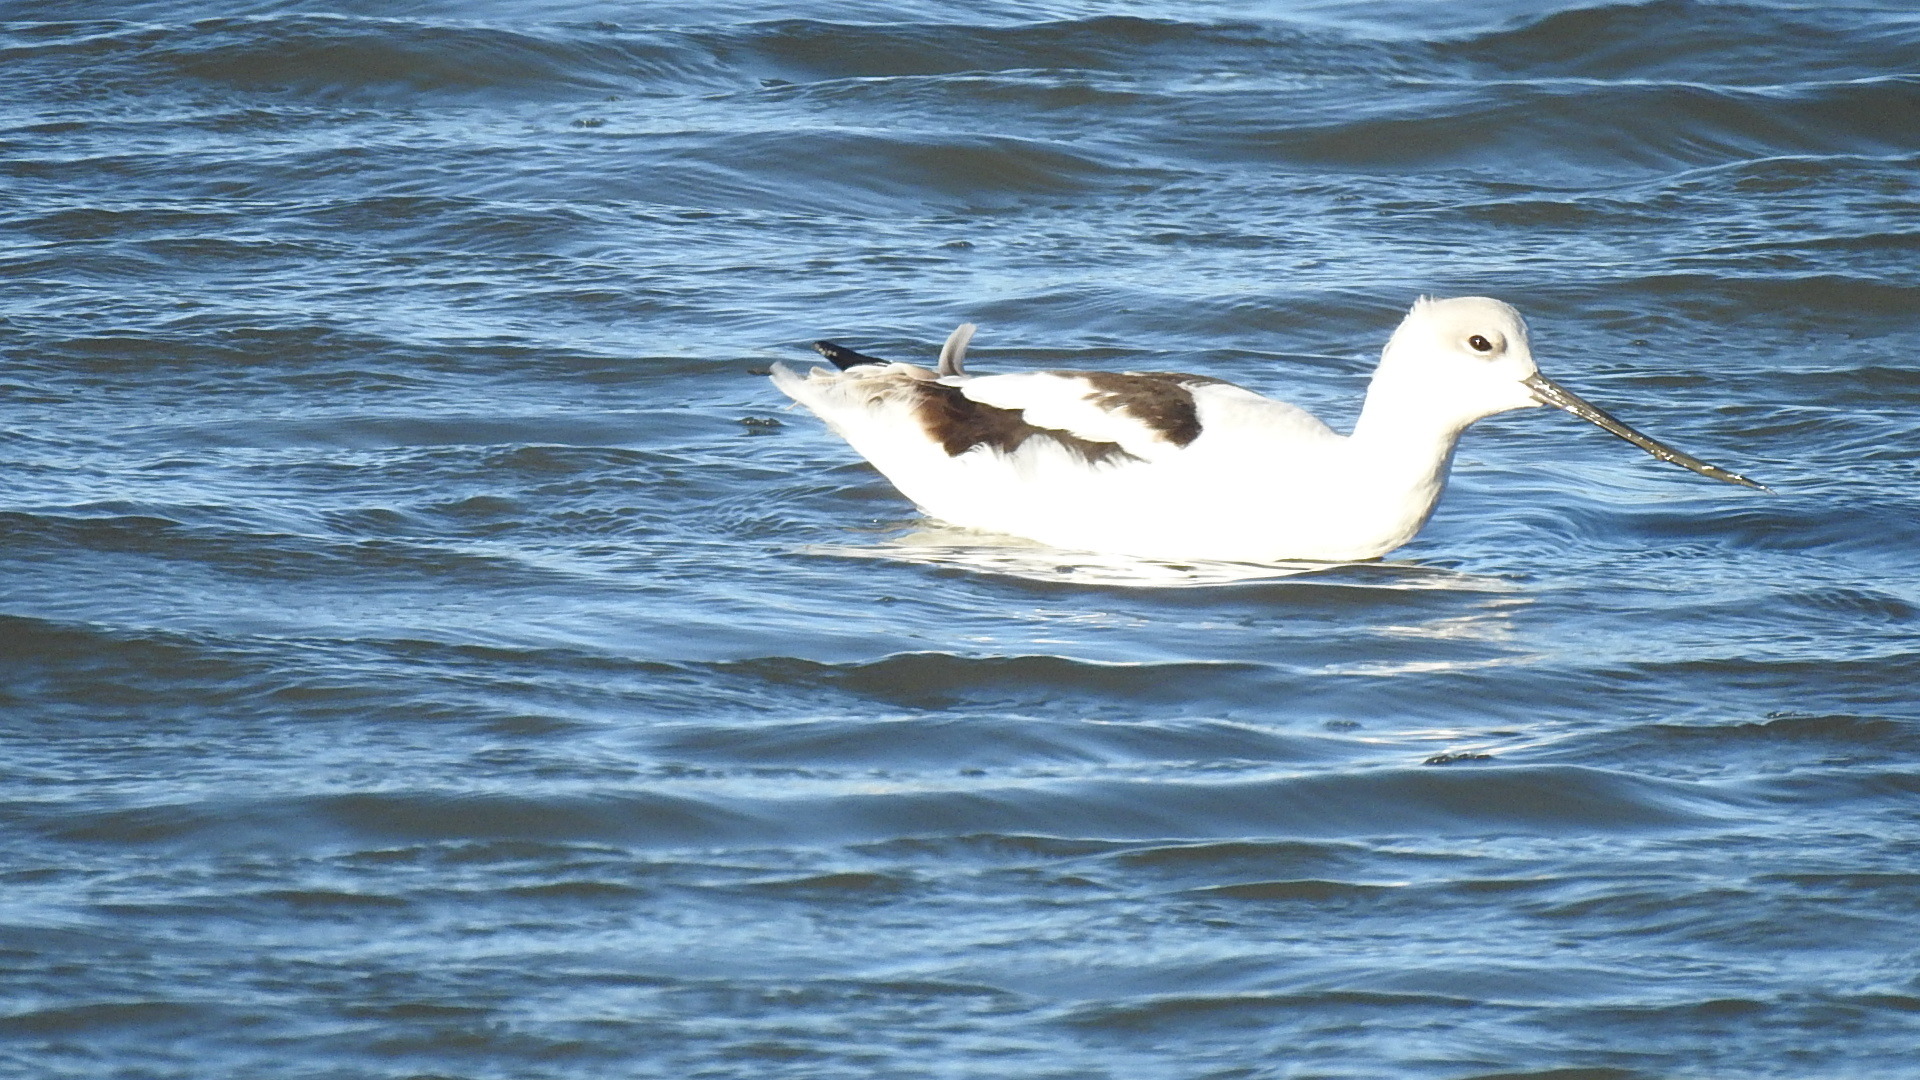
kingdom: Animalia
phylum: Chordata
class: Aves
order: Charadriiformes
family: Recurvirostridae
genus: Recurvirostra
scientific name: Recurvirostra americana
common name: American avocet
